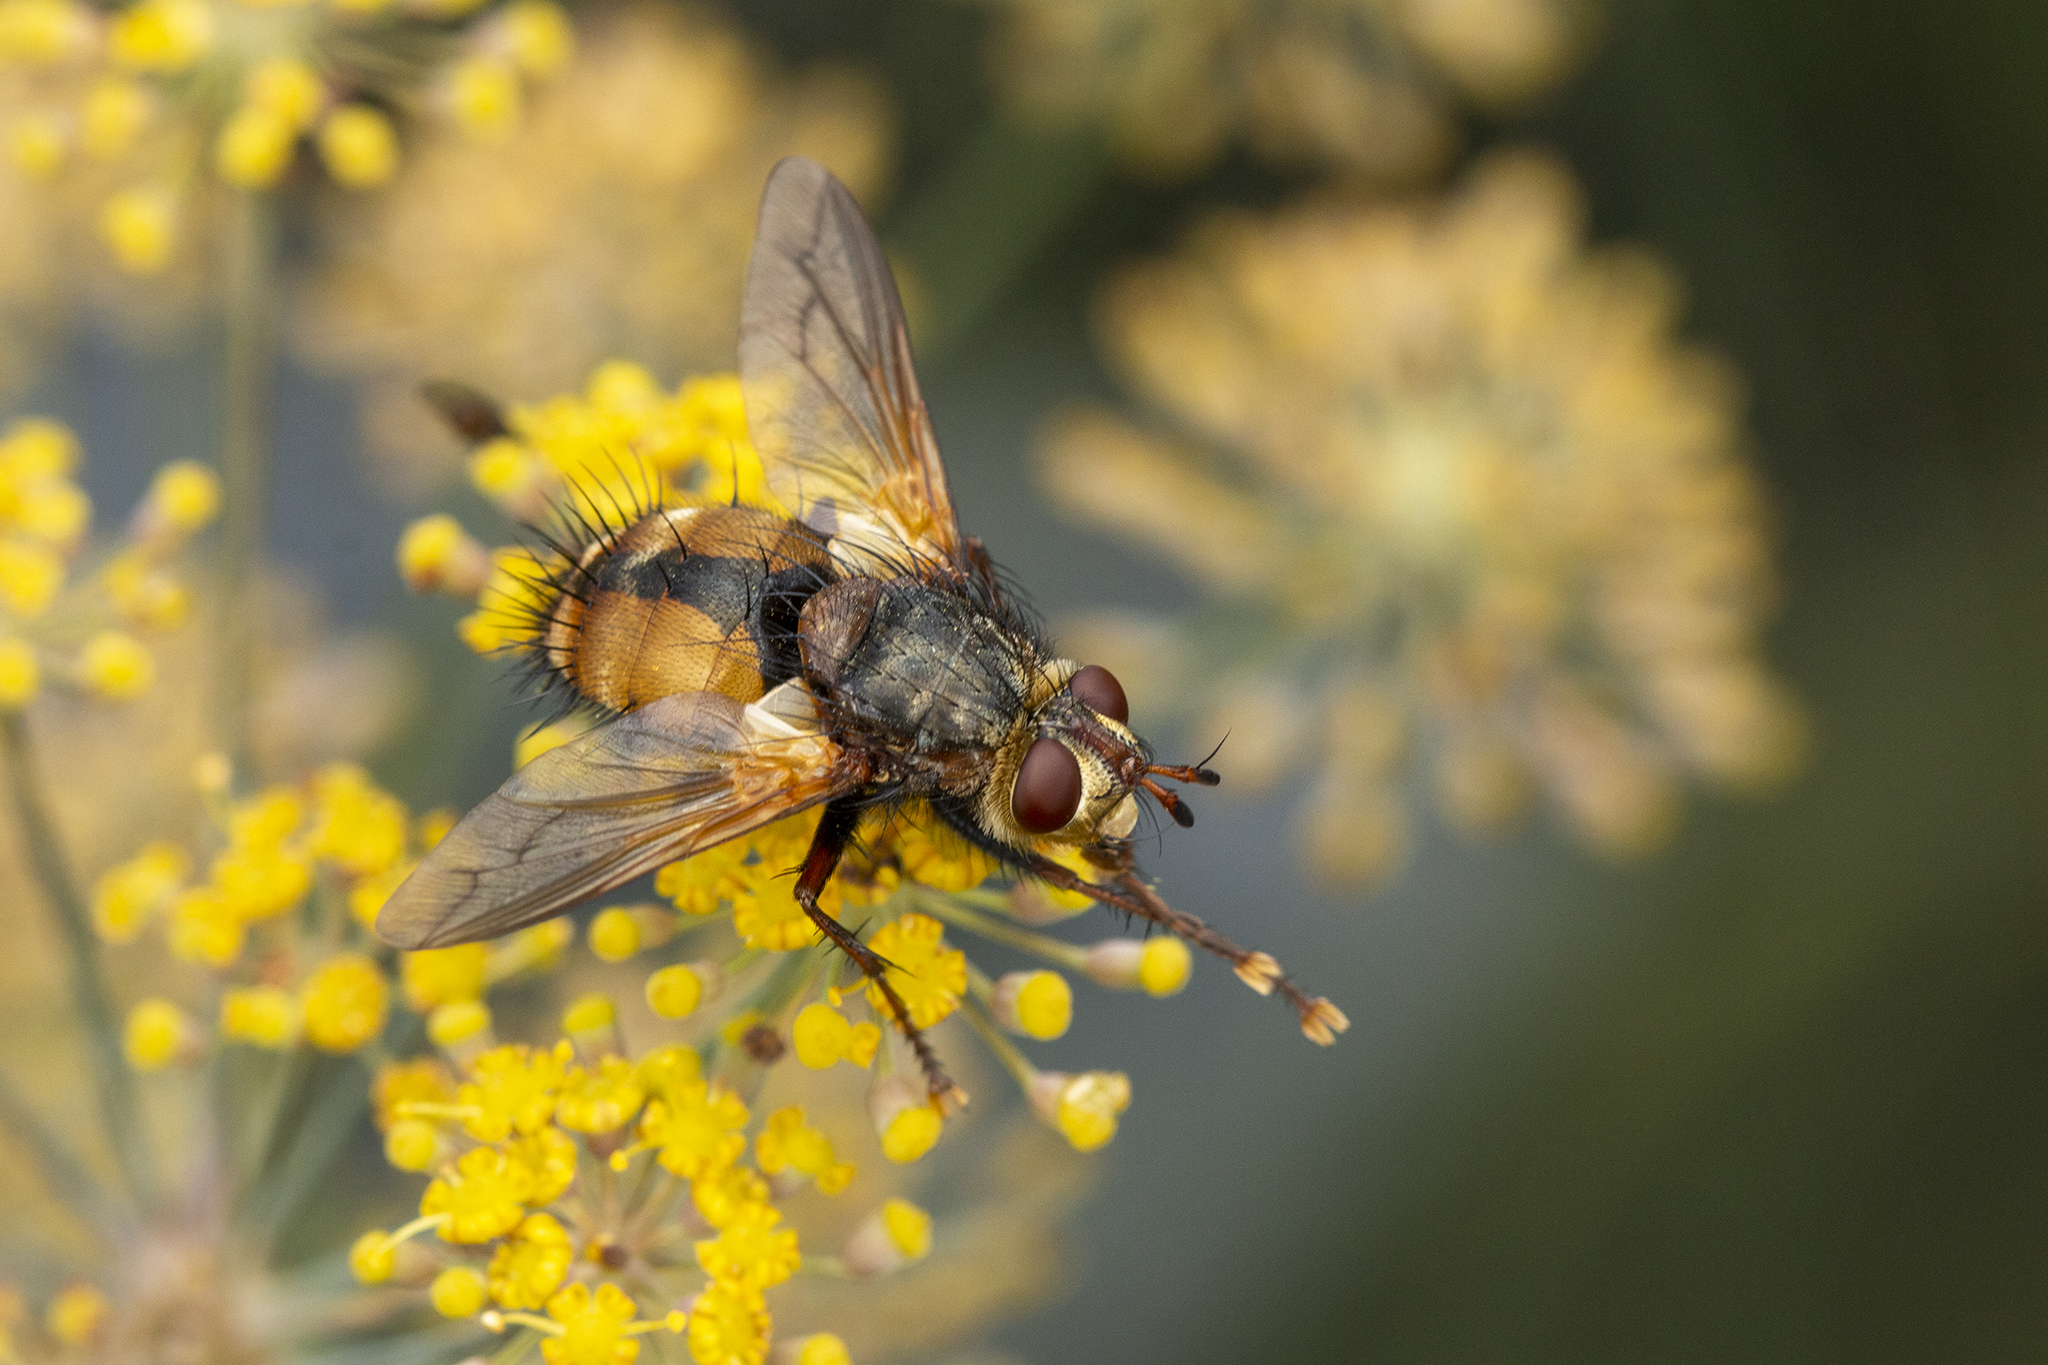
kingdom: Animalia
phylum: Arthropoda
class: Insecta
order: Diptera
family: Tachinidae
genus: Tachina
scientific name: Tachina fera
